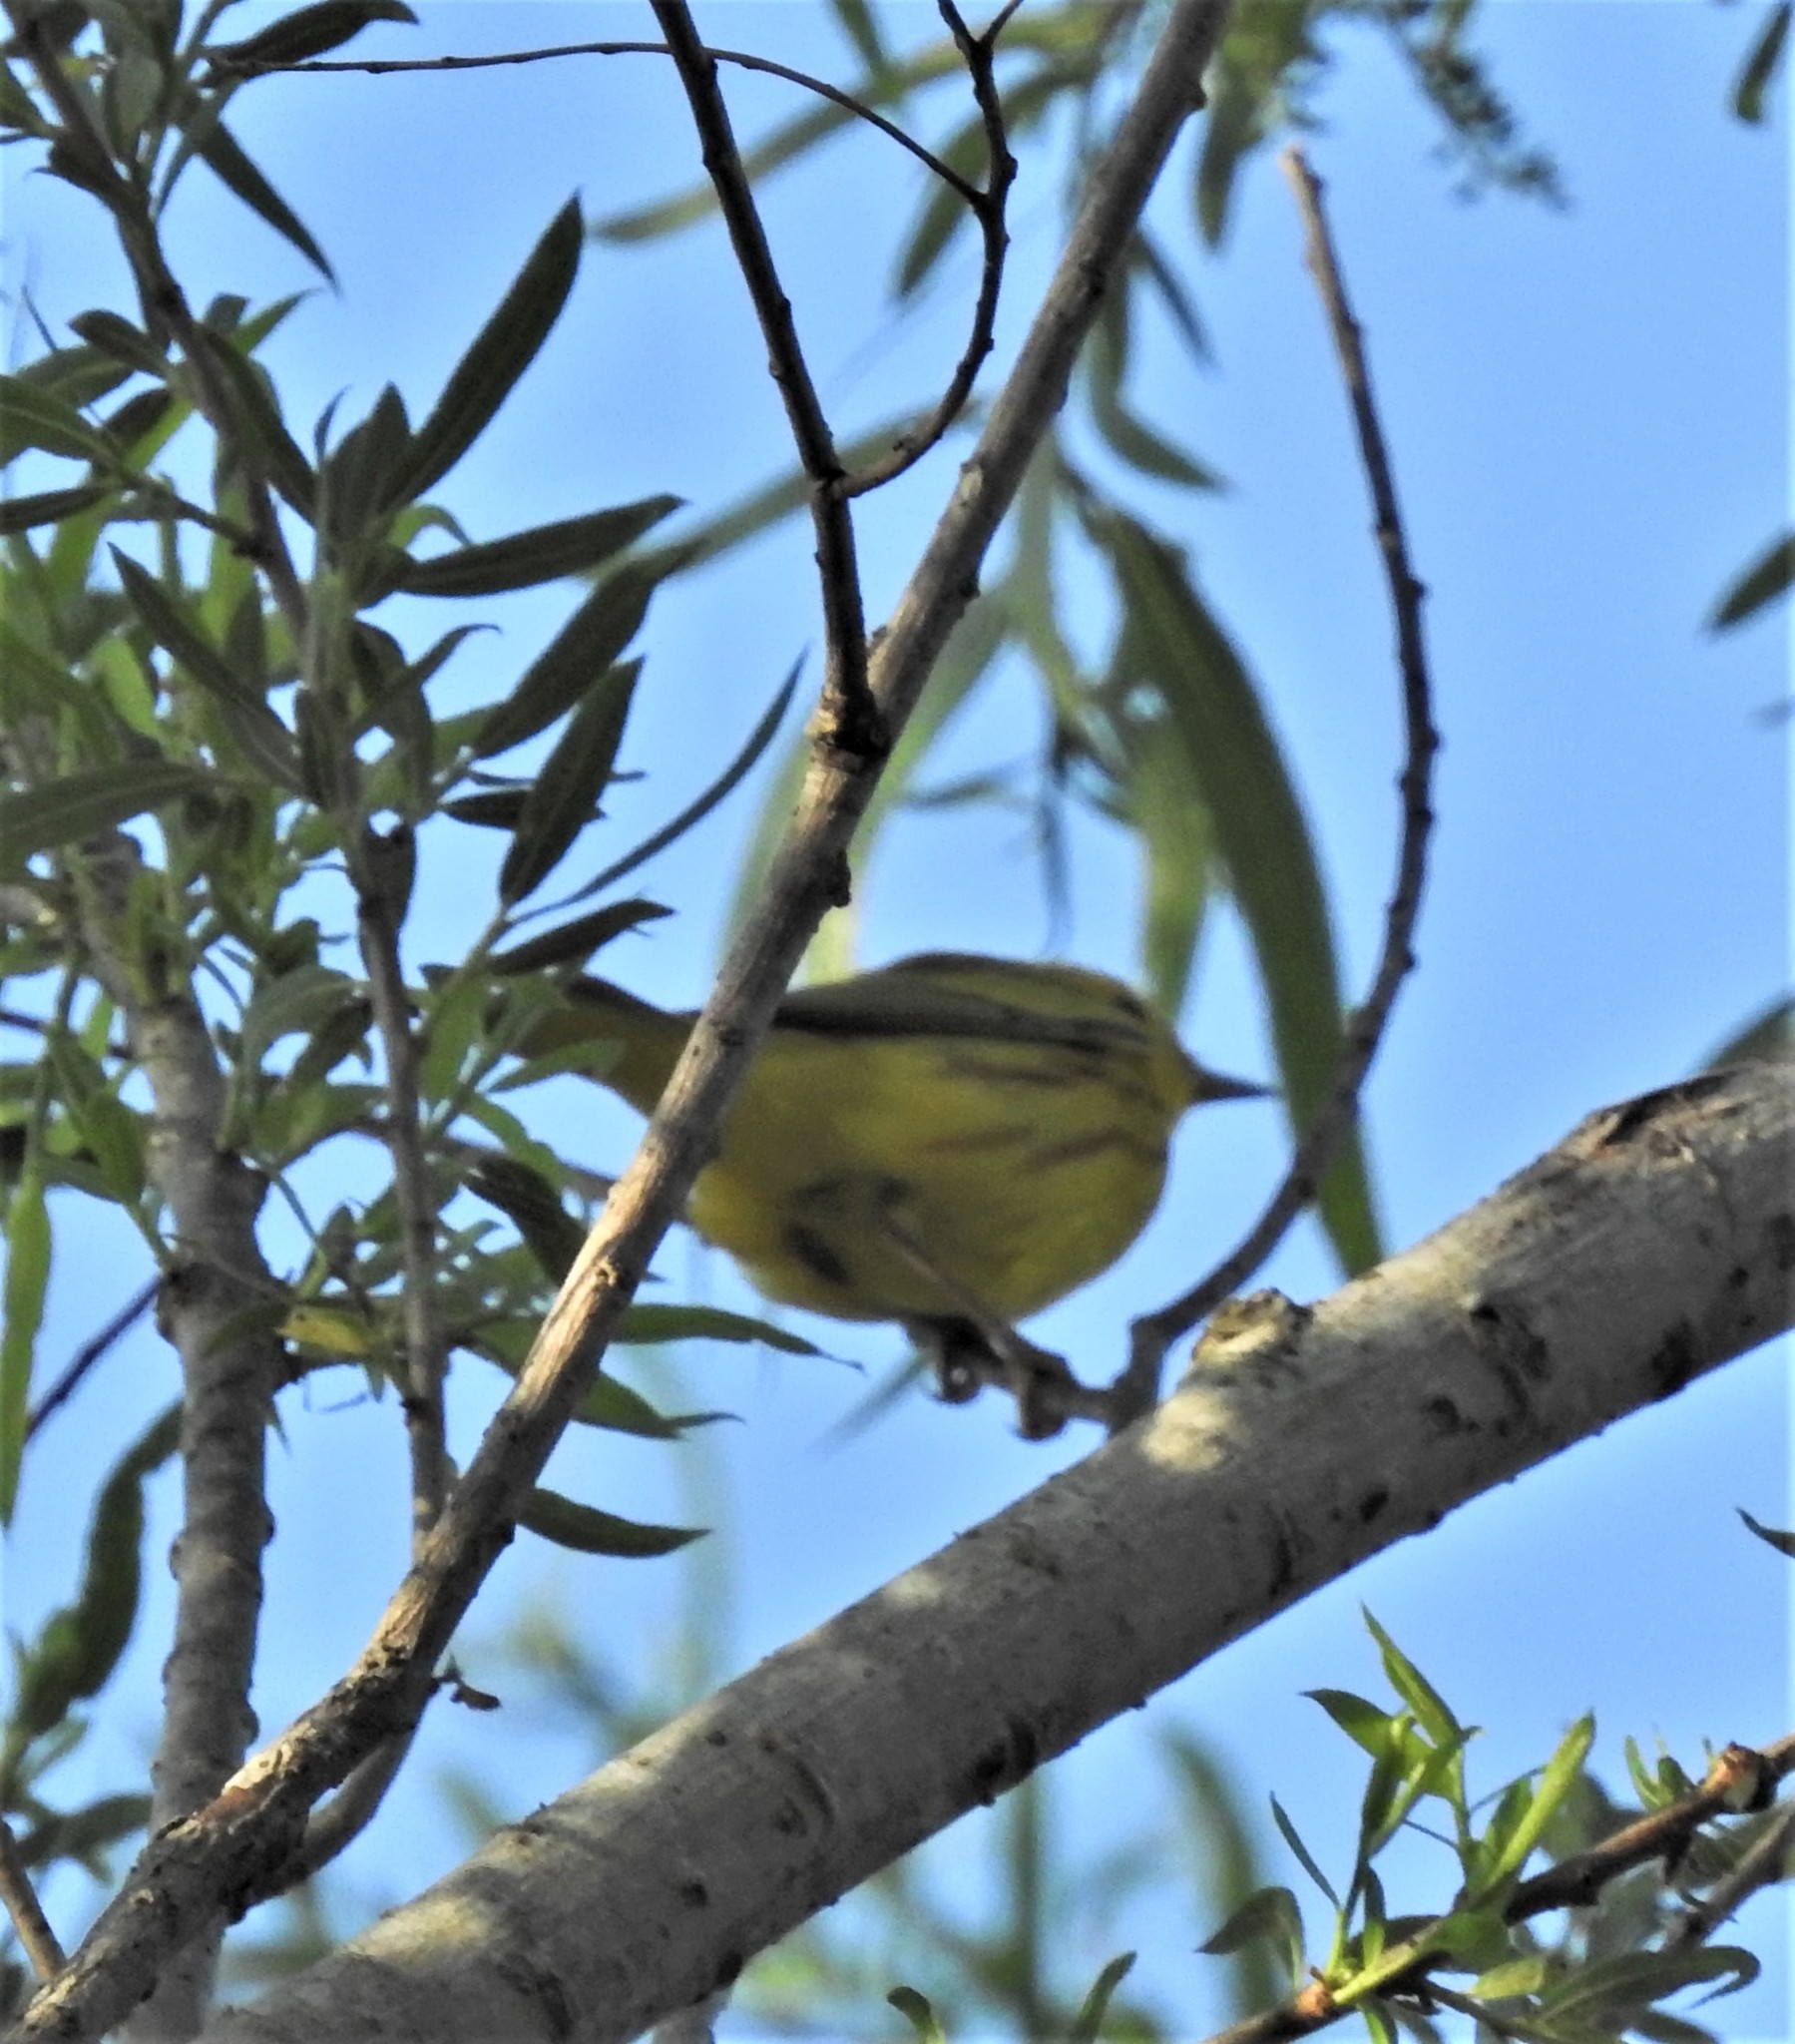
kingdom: Animalia
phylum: Chordata
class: Aves
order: Passeriformes
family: Parulidae
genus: Setophaga
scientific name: Setophaga petechia
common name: Yellow warbler
